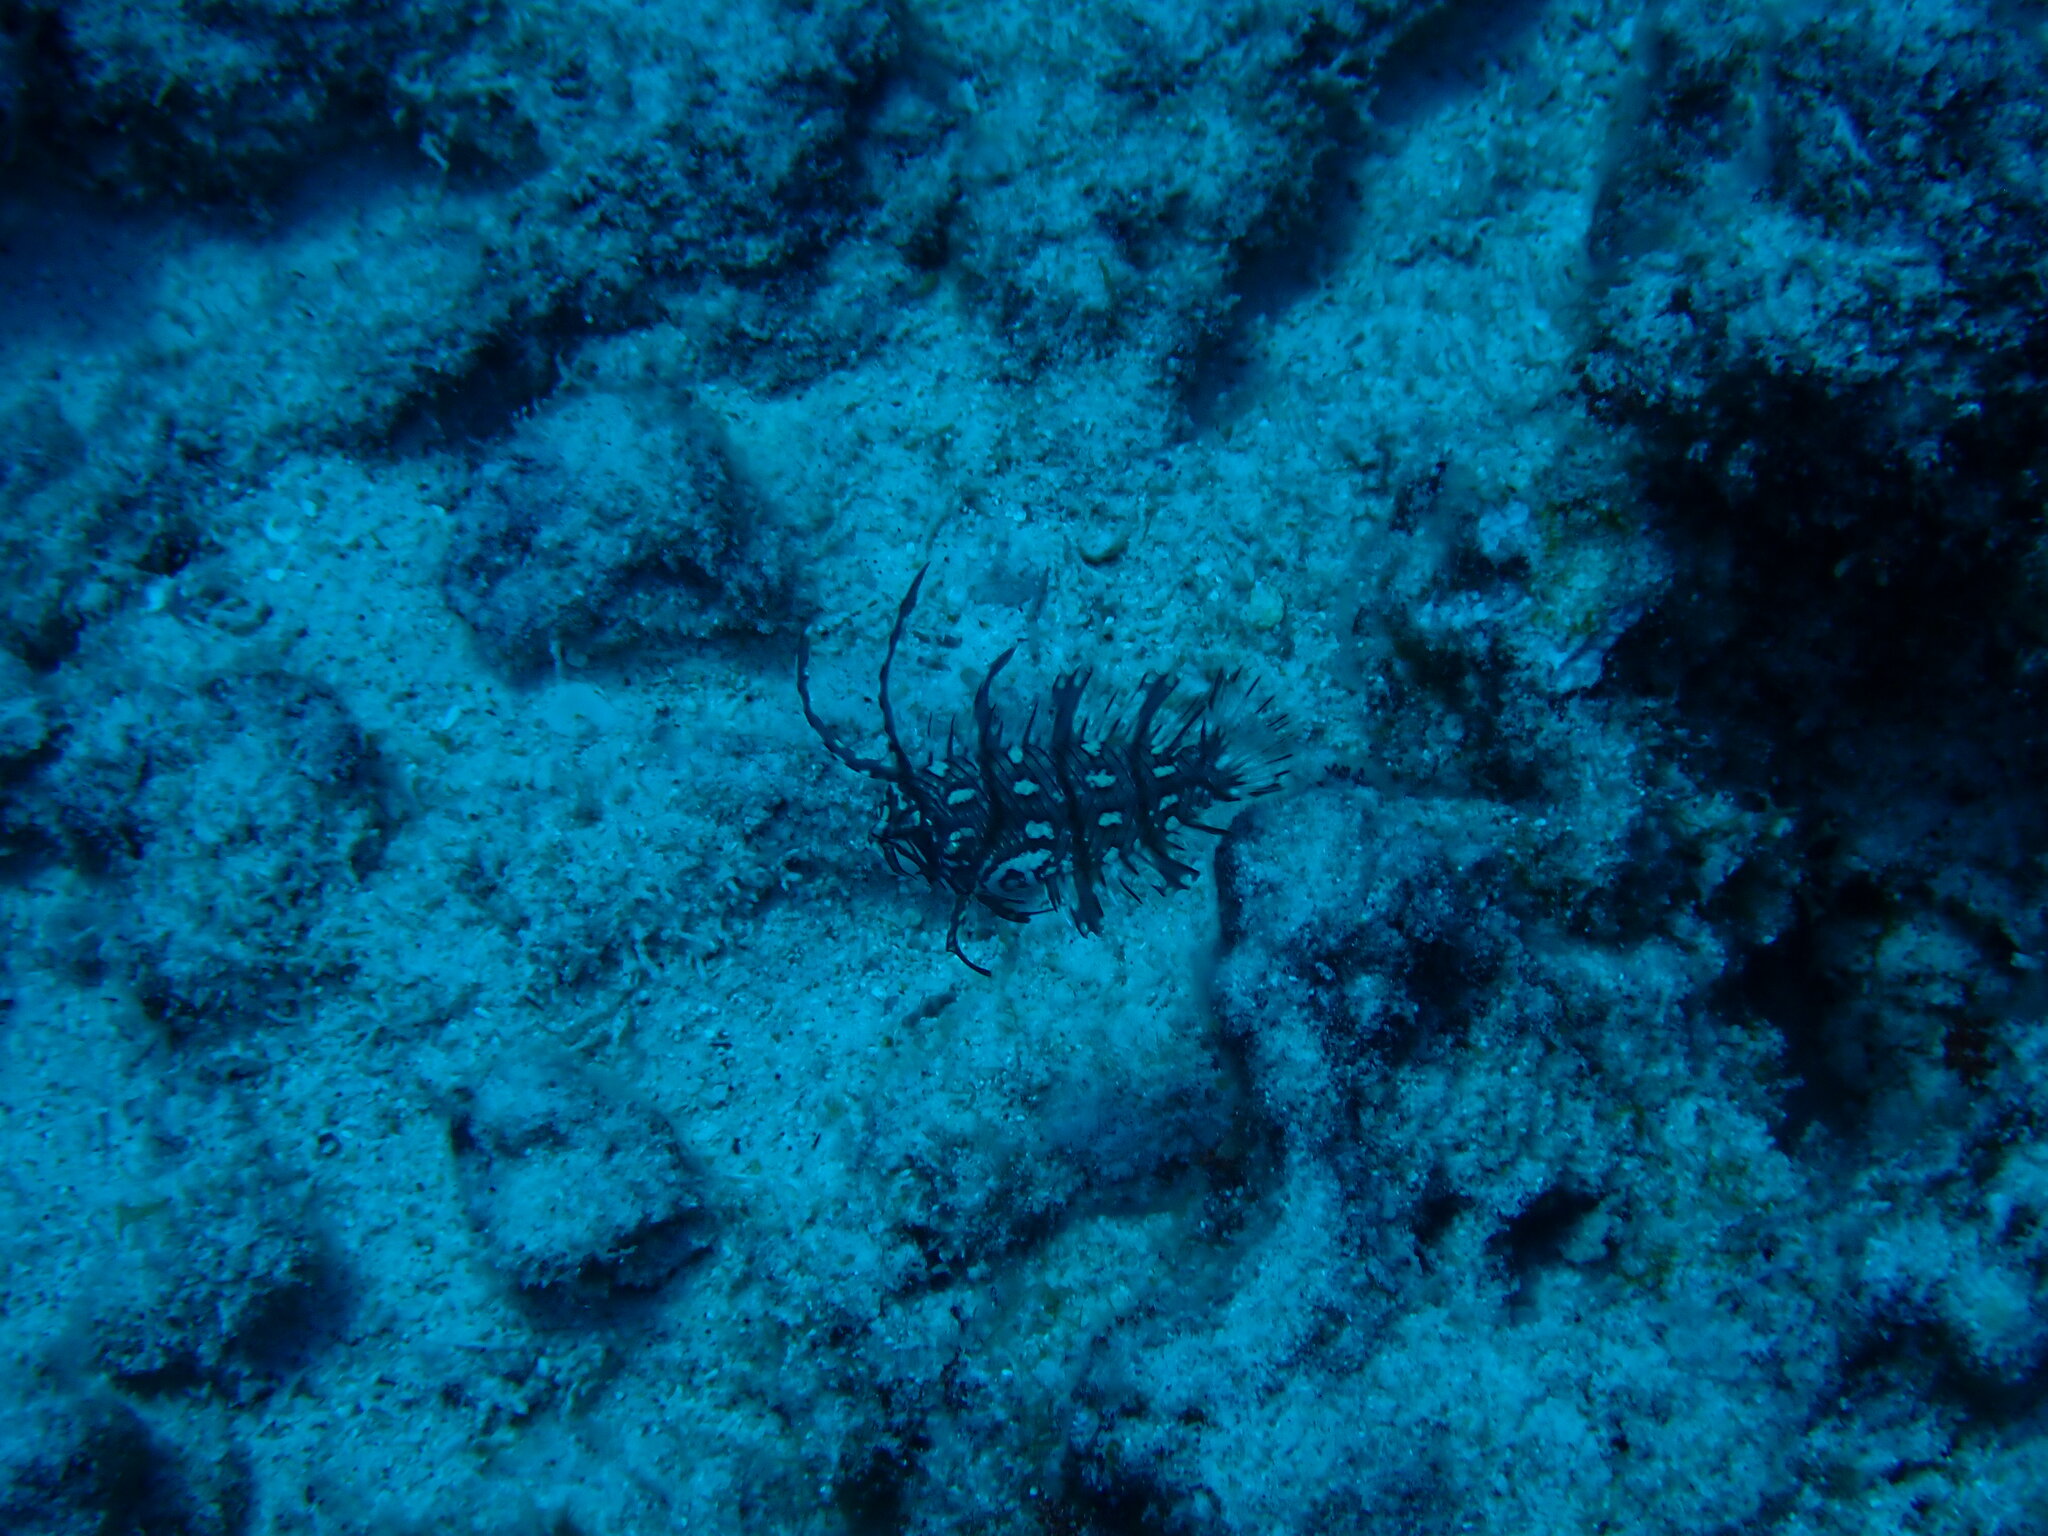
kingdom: Animalia
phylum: Chordata
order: Perciformes
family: Labridae
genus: Novaculichthys
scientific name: Novaculichthys taeniourus
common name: Rockmover wrasse
